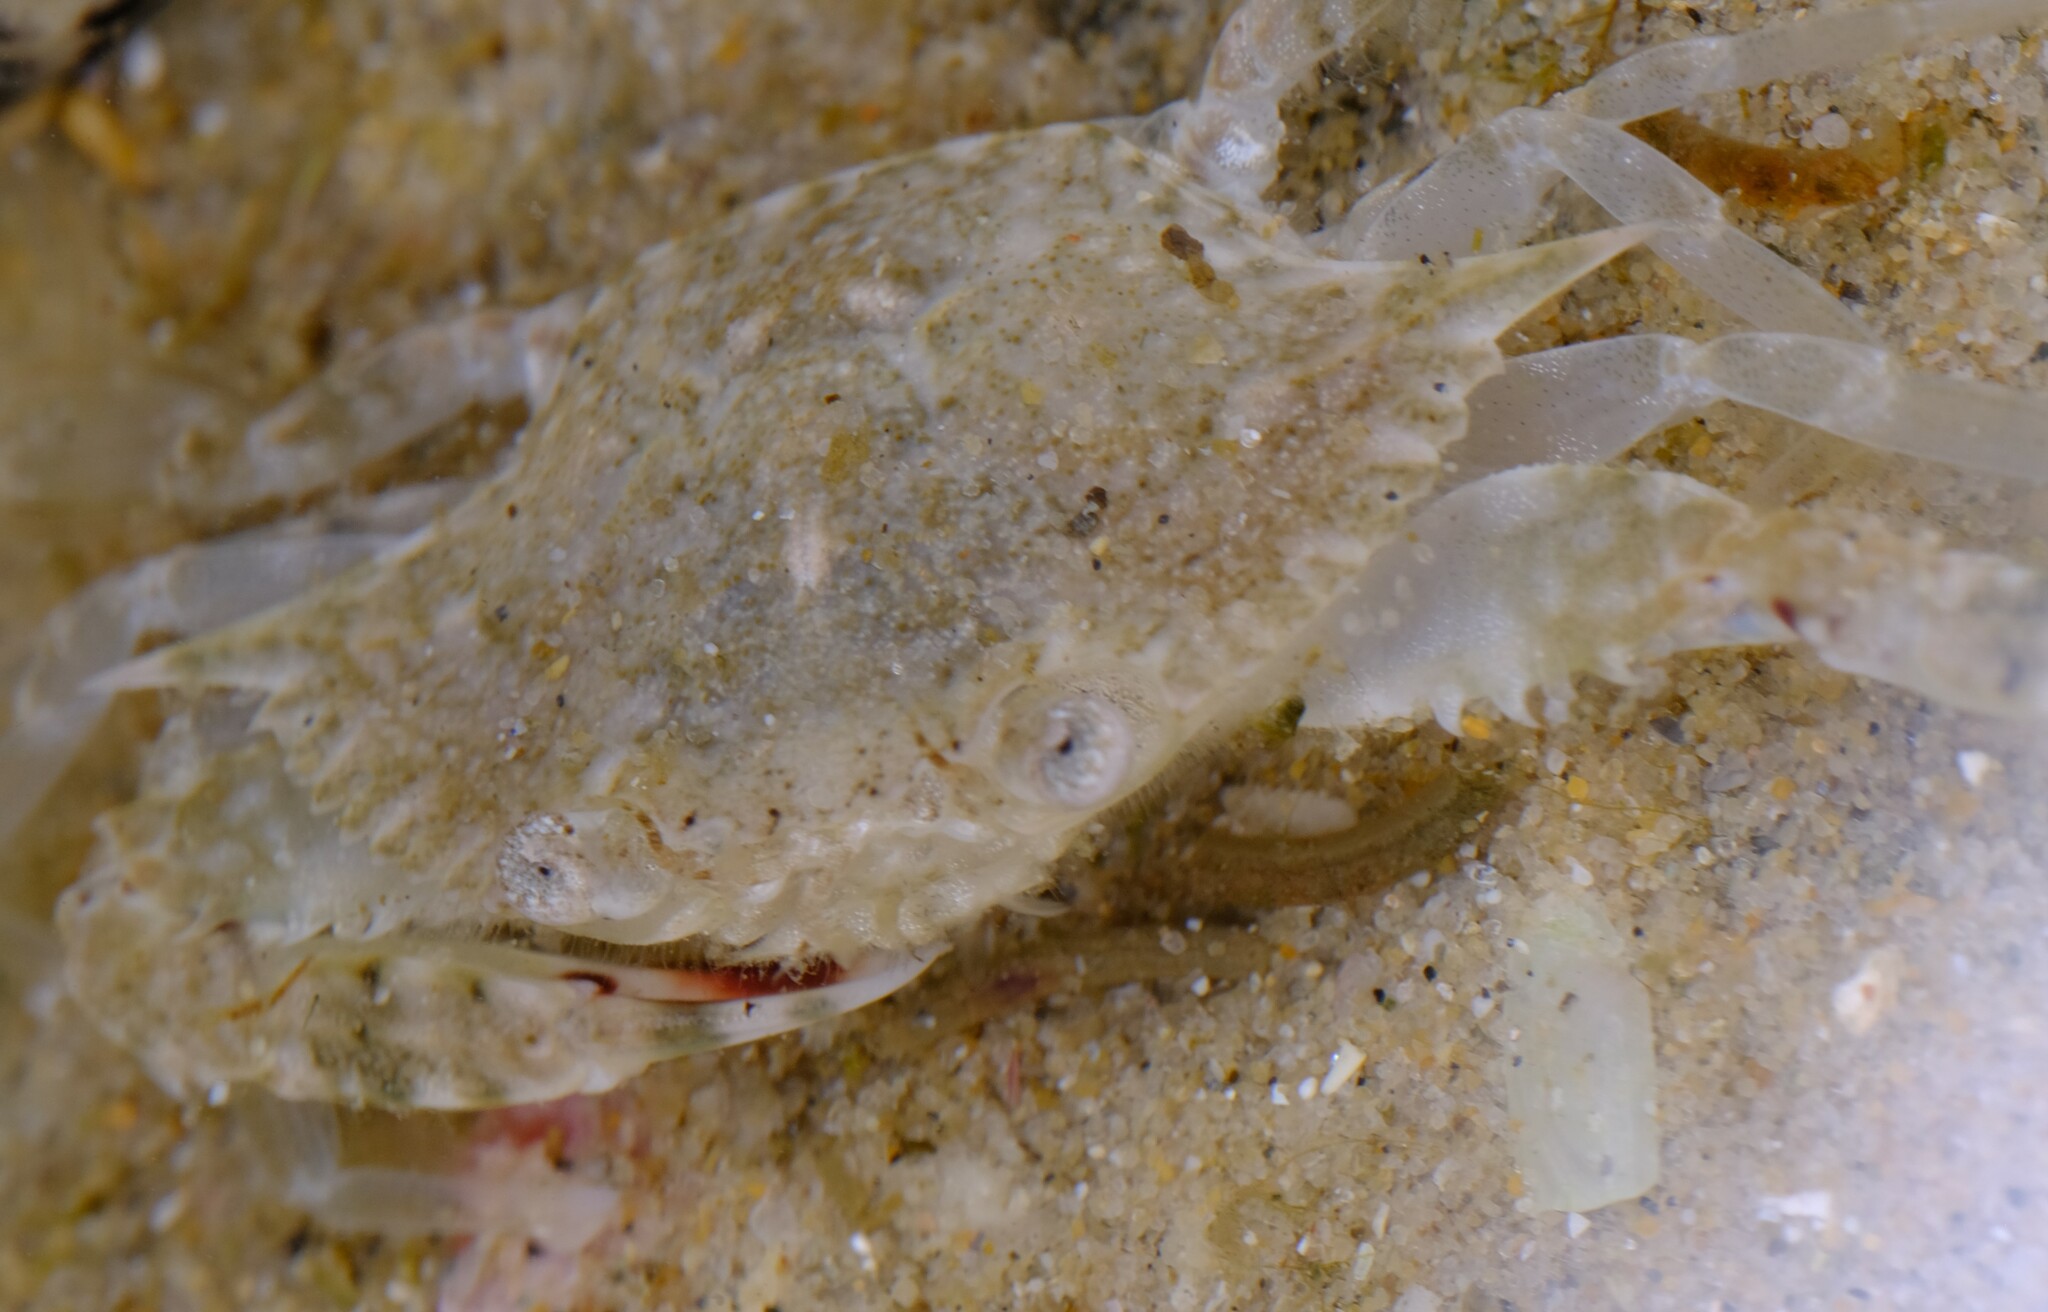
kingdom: Animalia
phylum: Arthropoda
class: Malacostraca
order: Decapoda
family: Portunidae
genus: Portunus
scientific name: Portunus pelagicus
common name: Blue swimming crab
